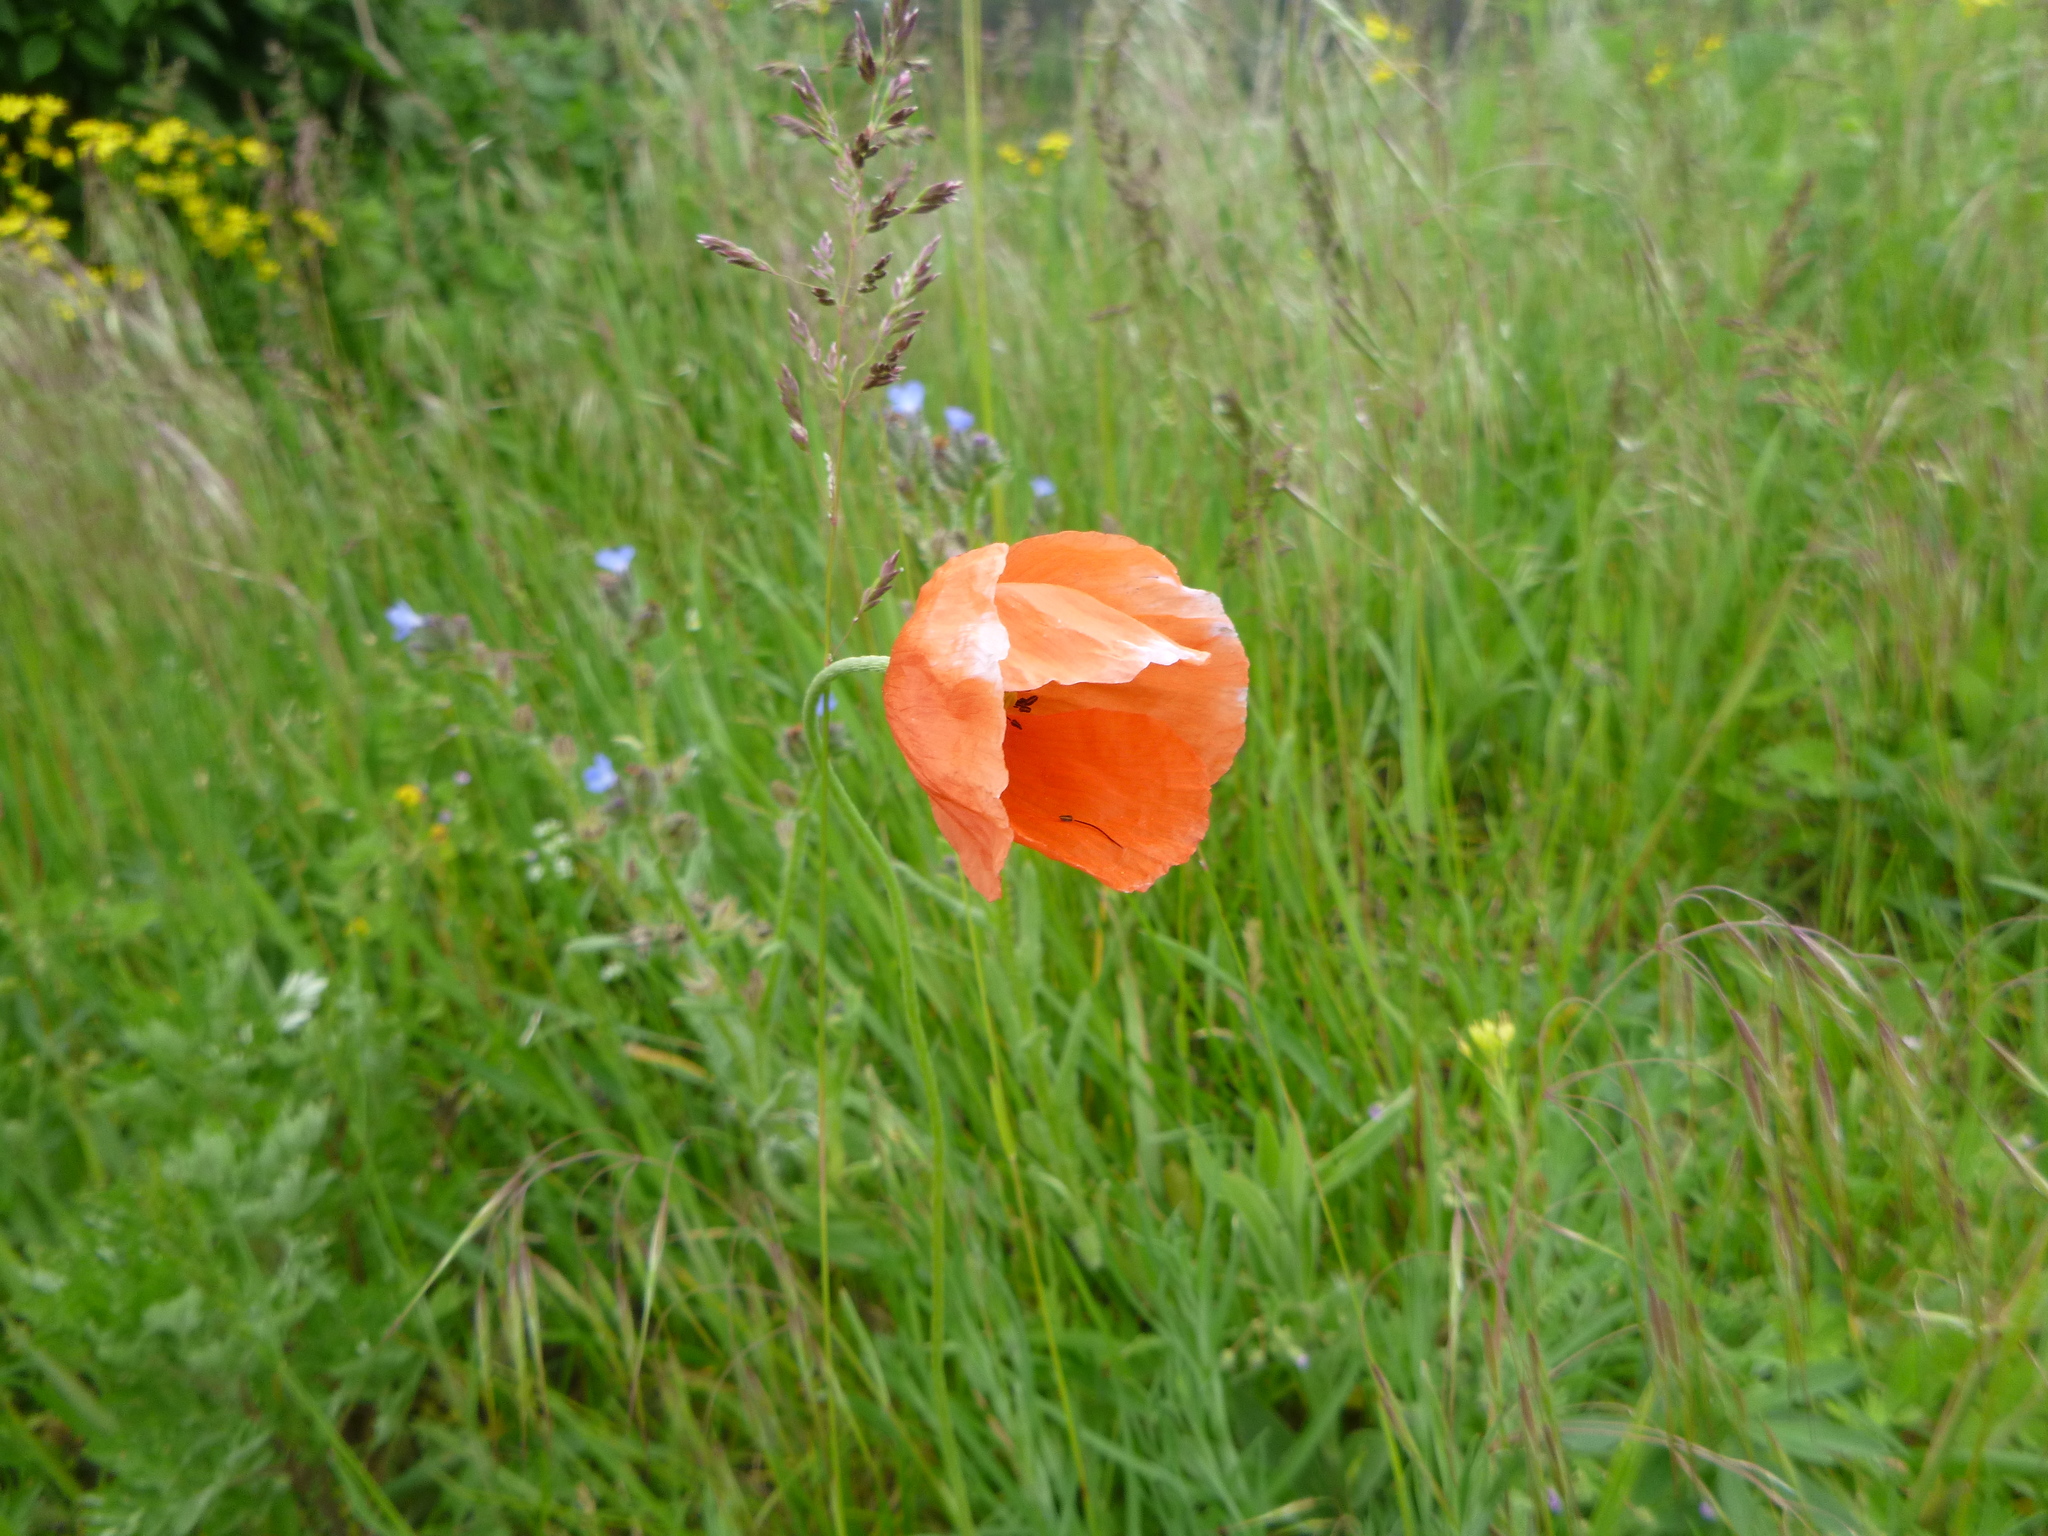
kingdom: Plantae
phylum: Tracheophyta
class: Magnoliopsida
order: Ranunculales
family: Papaveraceae
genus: Papaver
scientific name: Papaver dubium
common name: Long-headed poppy
